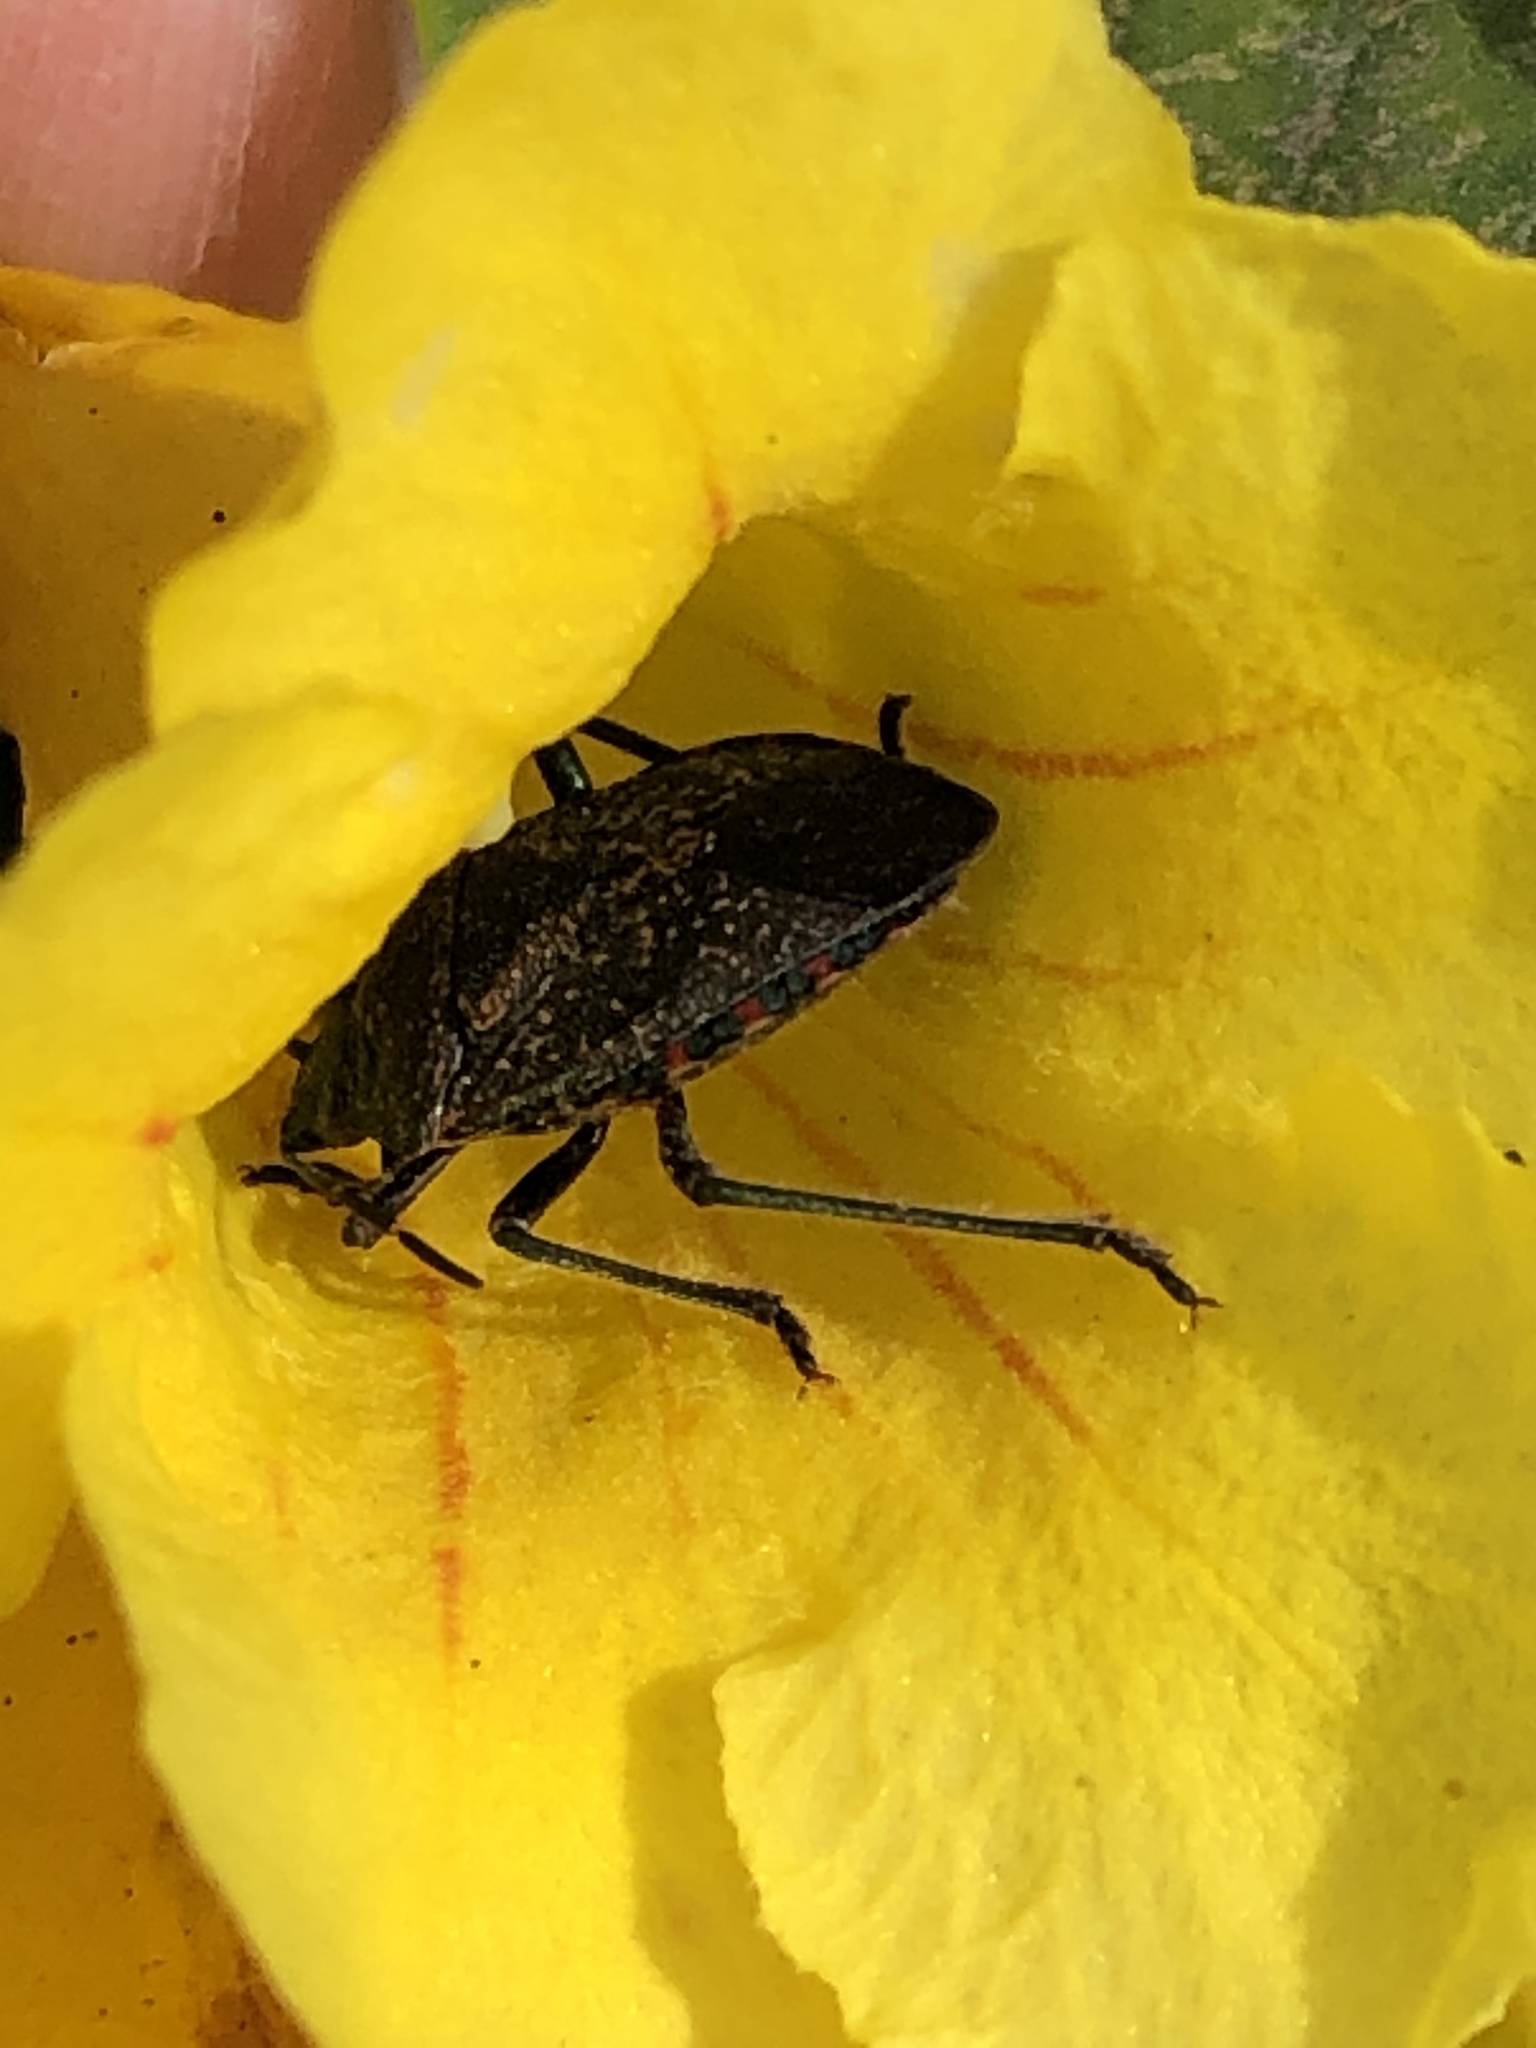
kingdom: Animalia
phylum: Arthropoda
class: Insecta
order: Hemiptera
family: Pentatomidae
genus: Pellaea
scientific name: Pellaea stictica
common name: Stink bug
